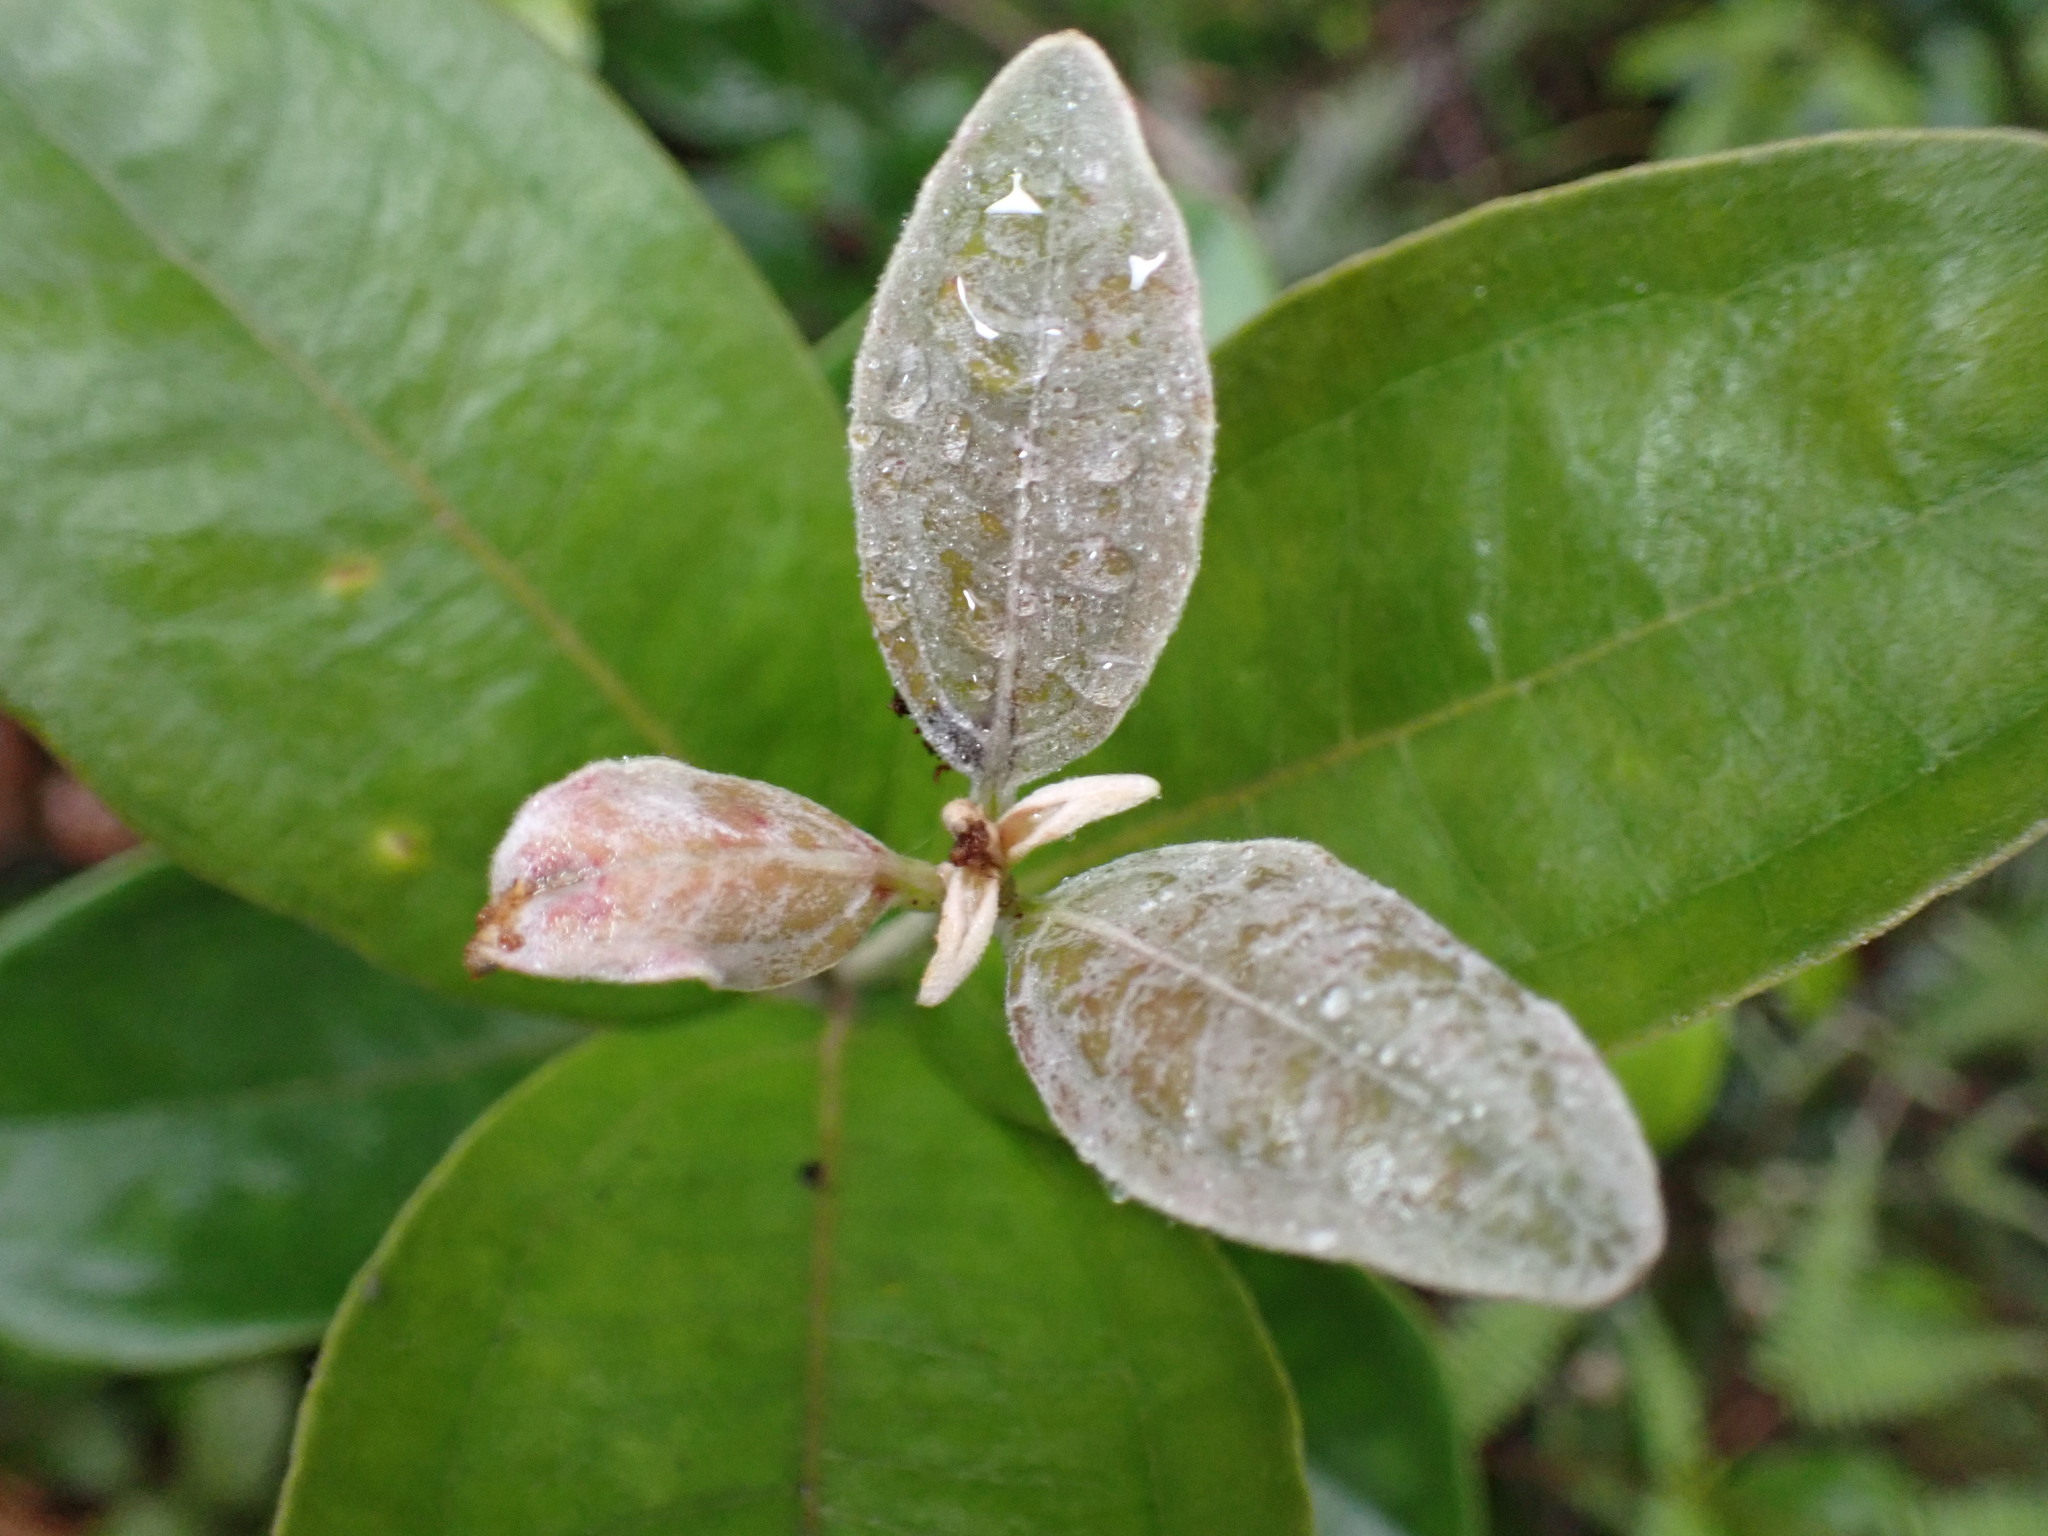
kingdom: Plantae
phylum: Tracheophyta
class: Magnoliopsida
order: Myrtales
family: Myrtaceae
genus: Rhodomyrtus
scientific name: Rhodomyrtus tomentosa
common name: Rose myrtle
